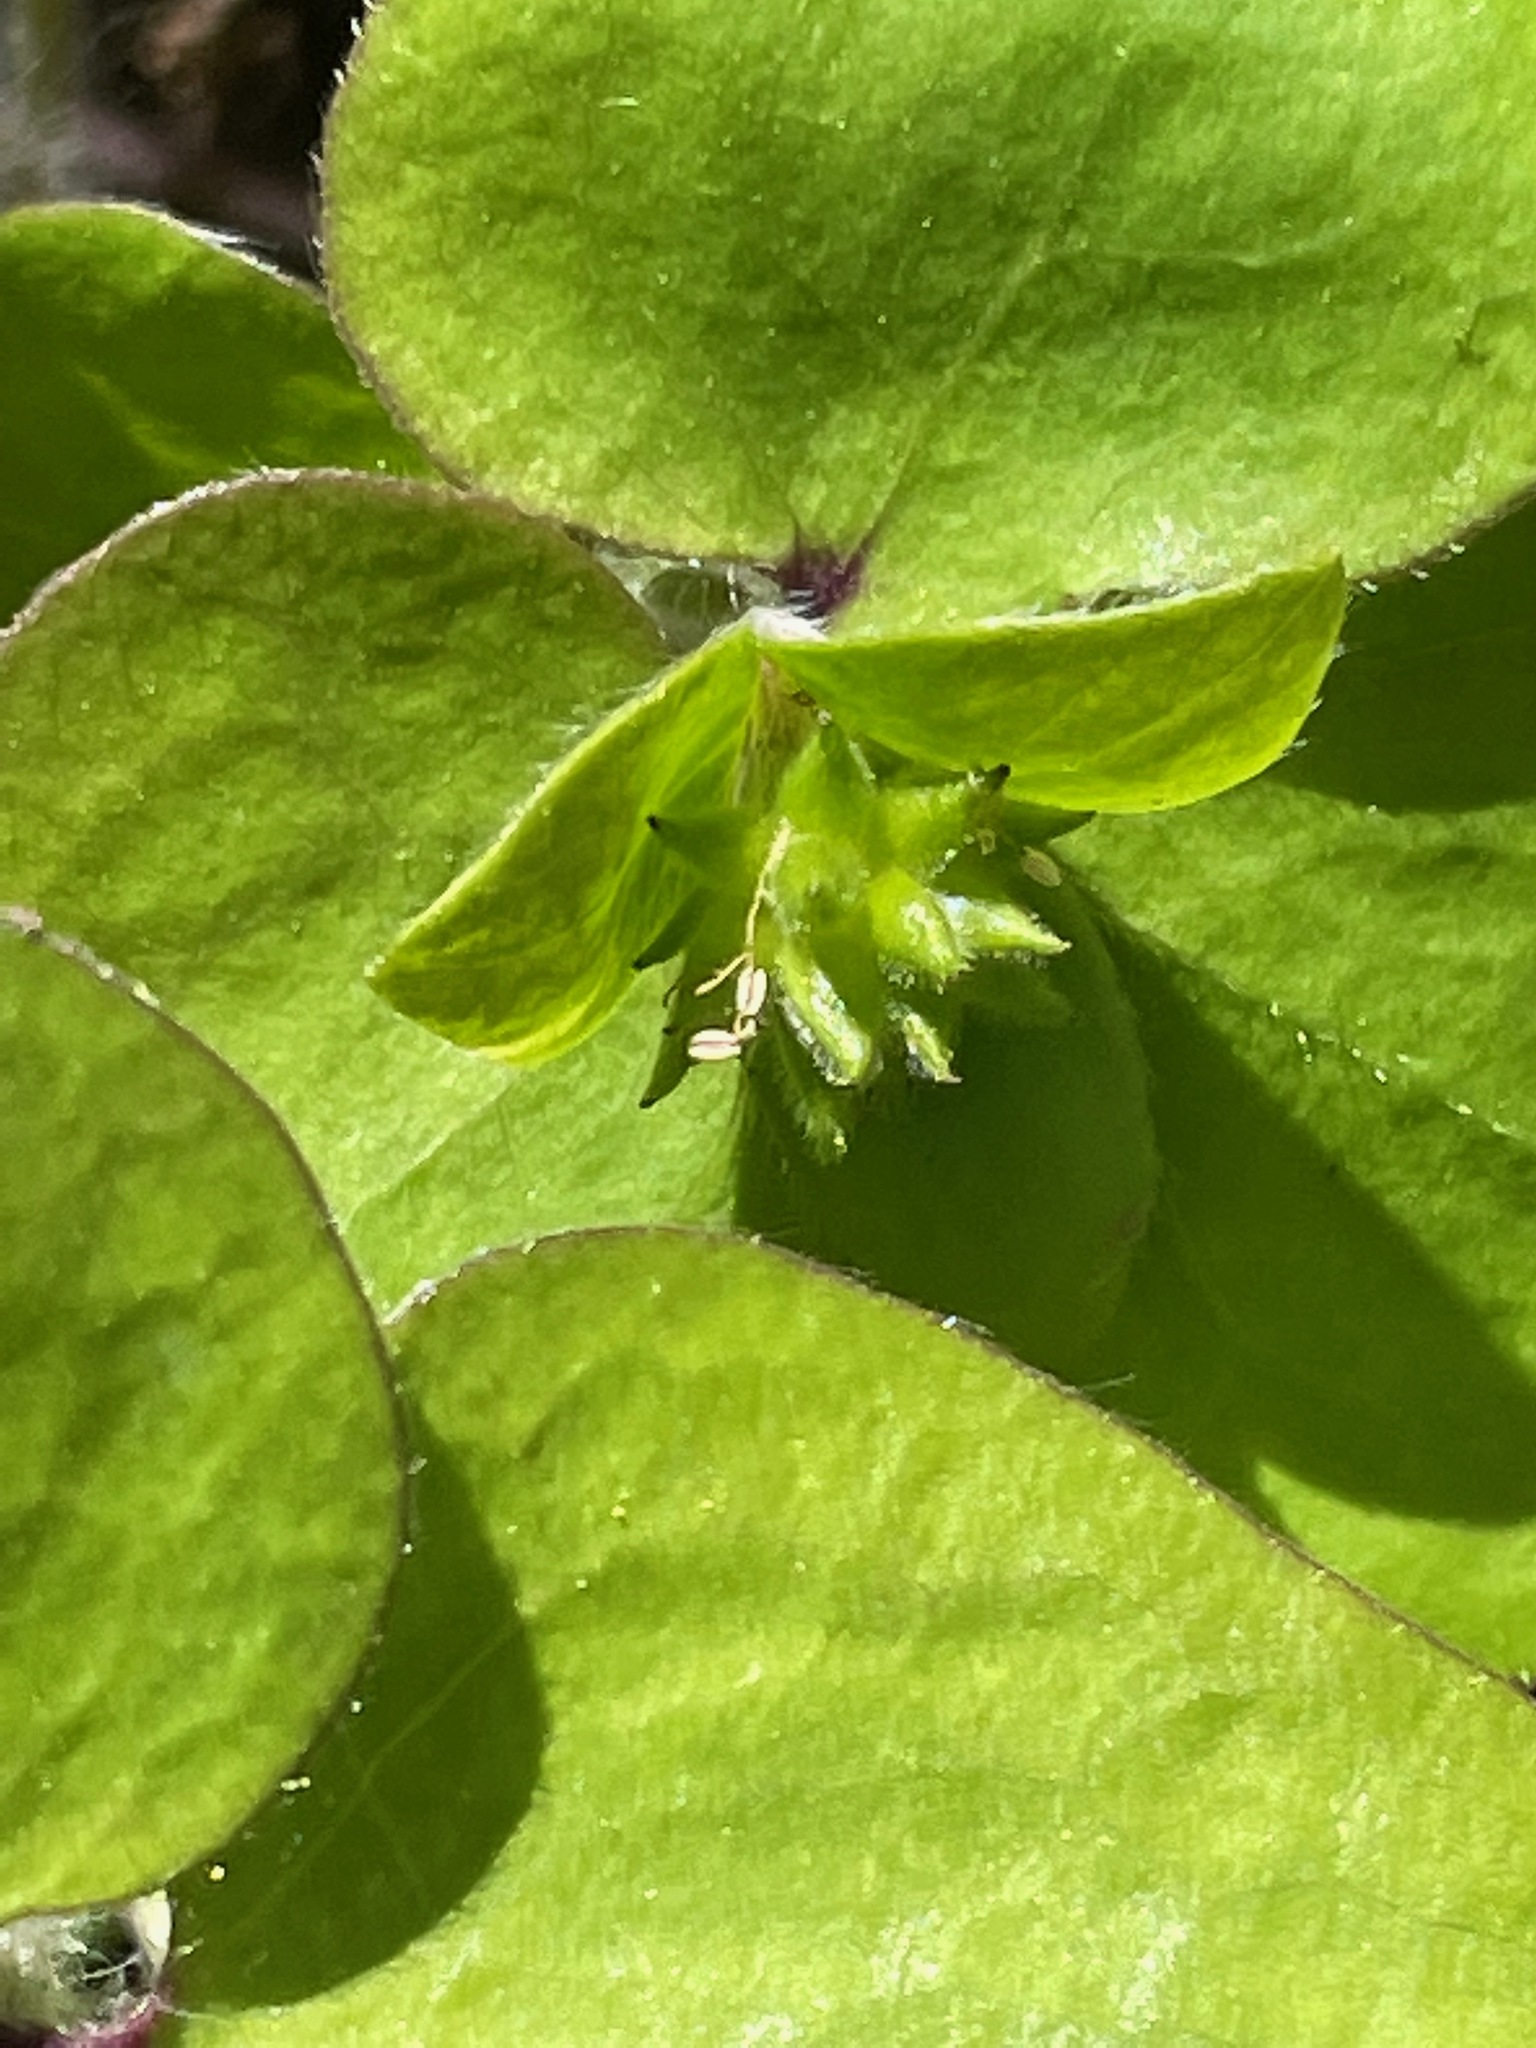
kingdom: Plantae
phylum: Tracheophyta
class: Magnoliopsida
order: Ranunculales
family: Ranunculaceae
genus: Hepatica
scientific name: Hepatica acutiloba
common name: Sharp-lobed hepatica
